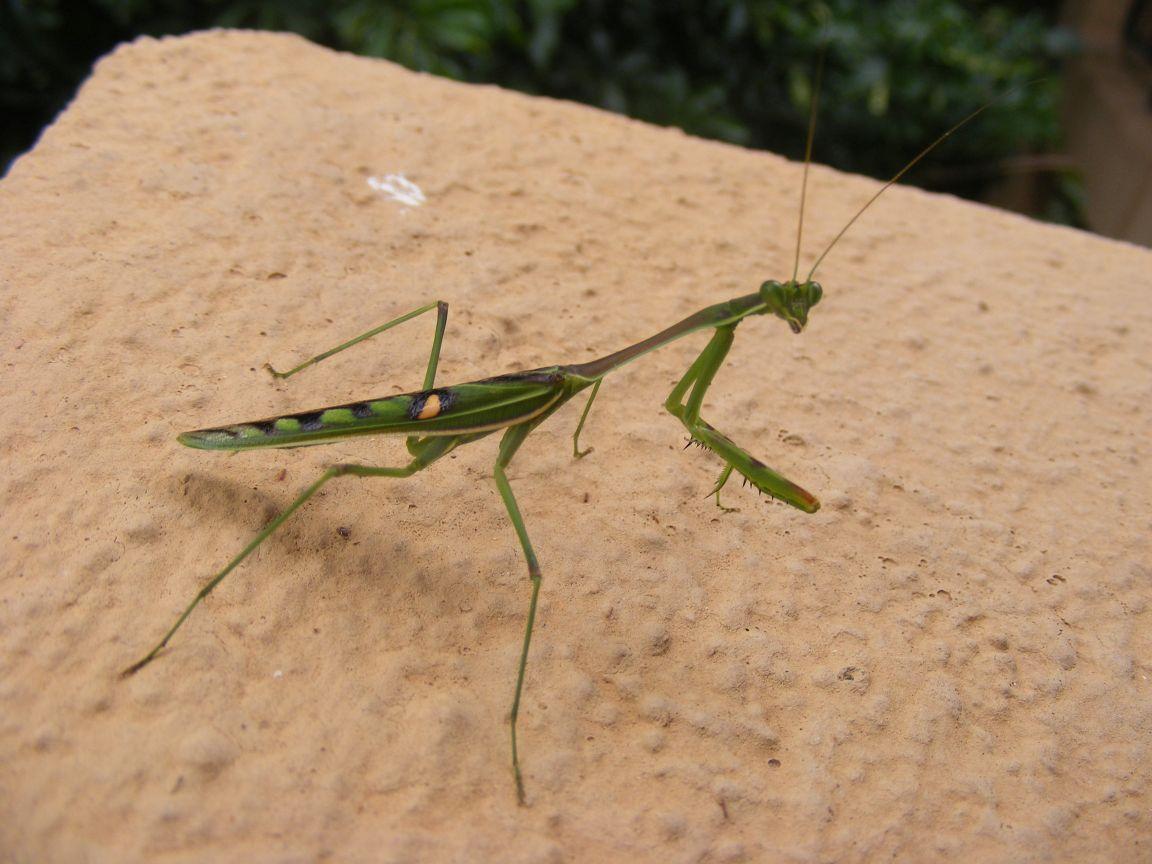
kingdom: Animalia
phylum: Arthropoda
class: Insecta
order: Mantodea
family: Mantidae
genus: Omomantis
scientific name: Omomantis zebrata
